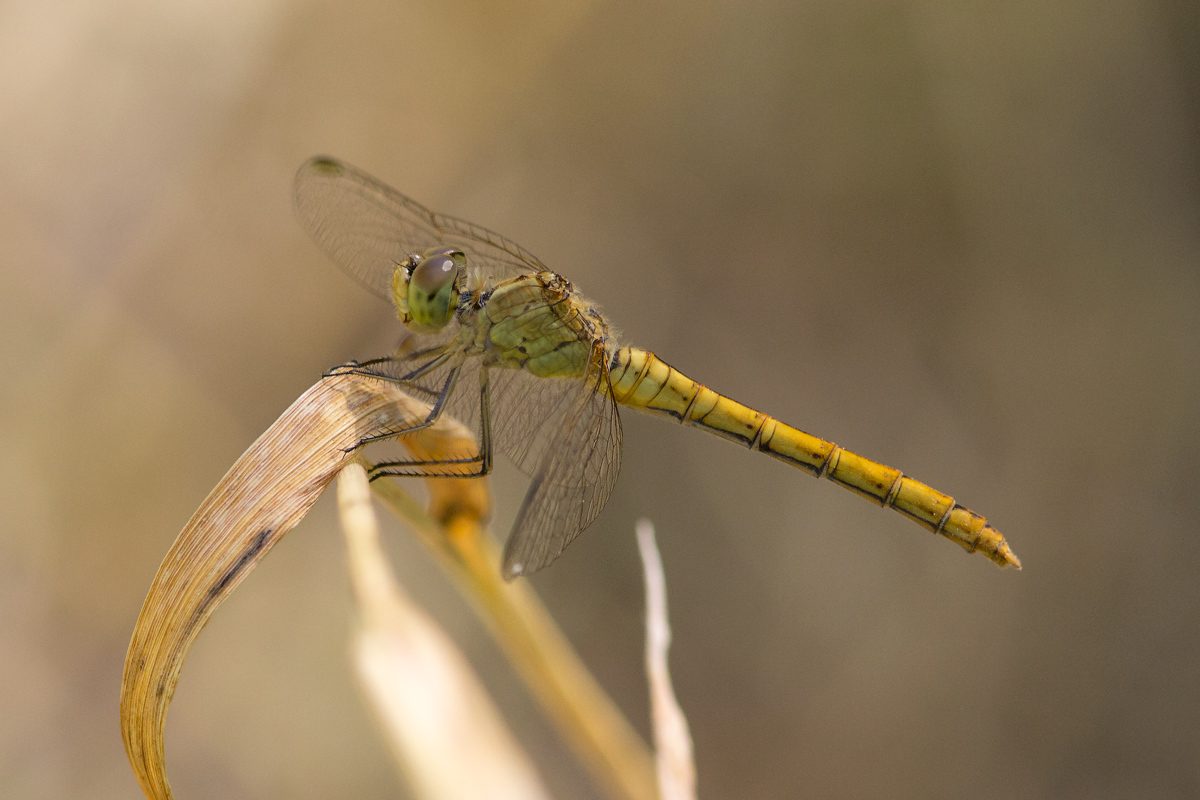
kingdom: Animalia
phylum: Arthropoda
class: Insecta
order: Odonata
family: Libellulidae
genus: Sympetrum
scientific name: Sympetrum meridionale
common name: Southern darter
